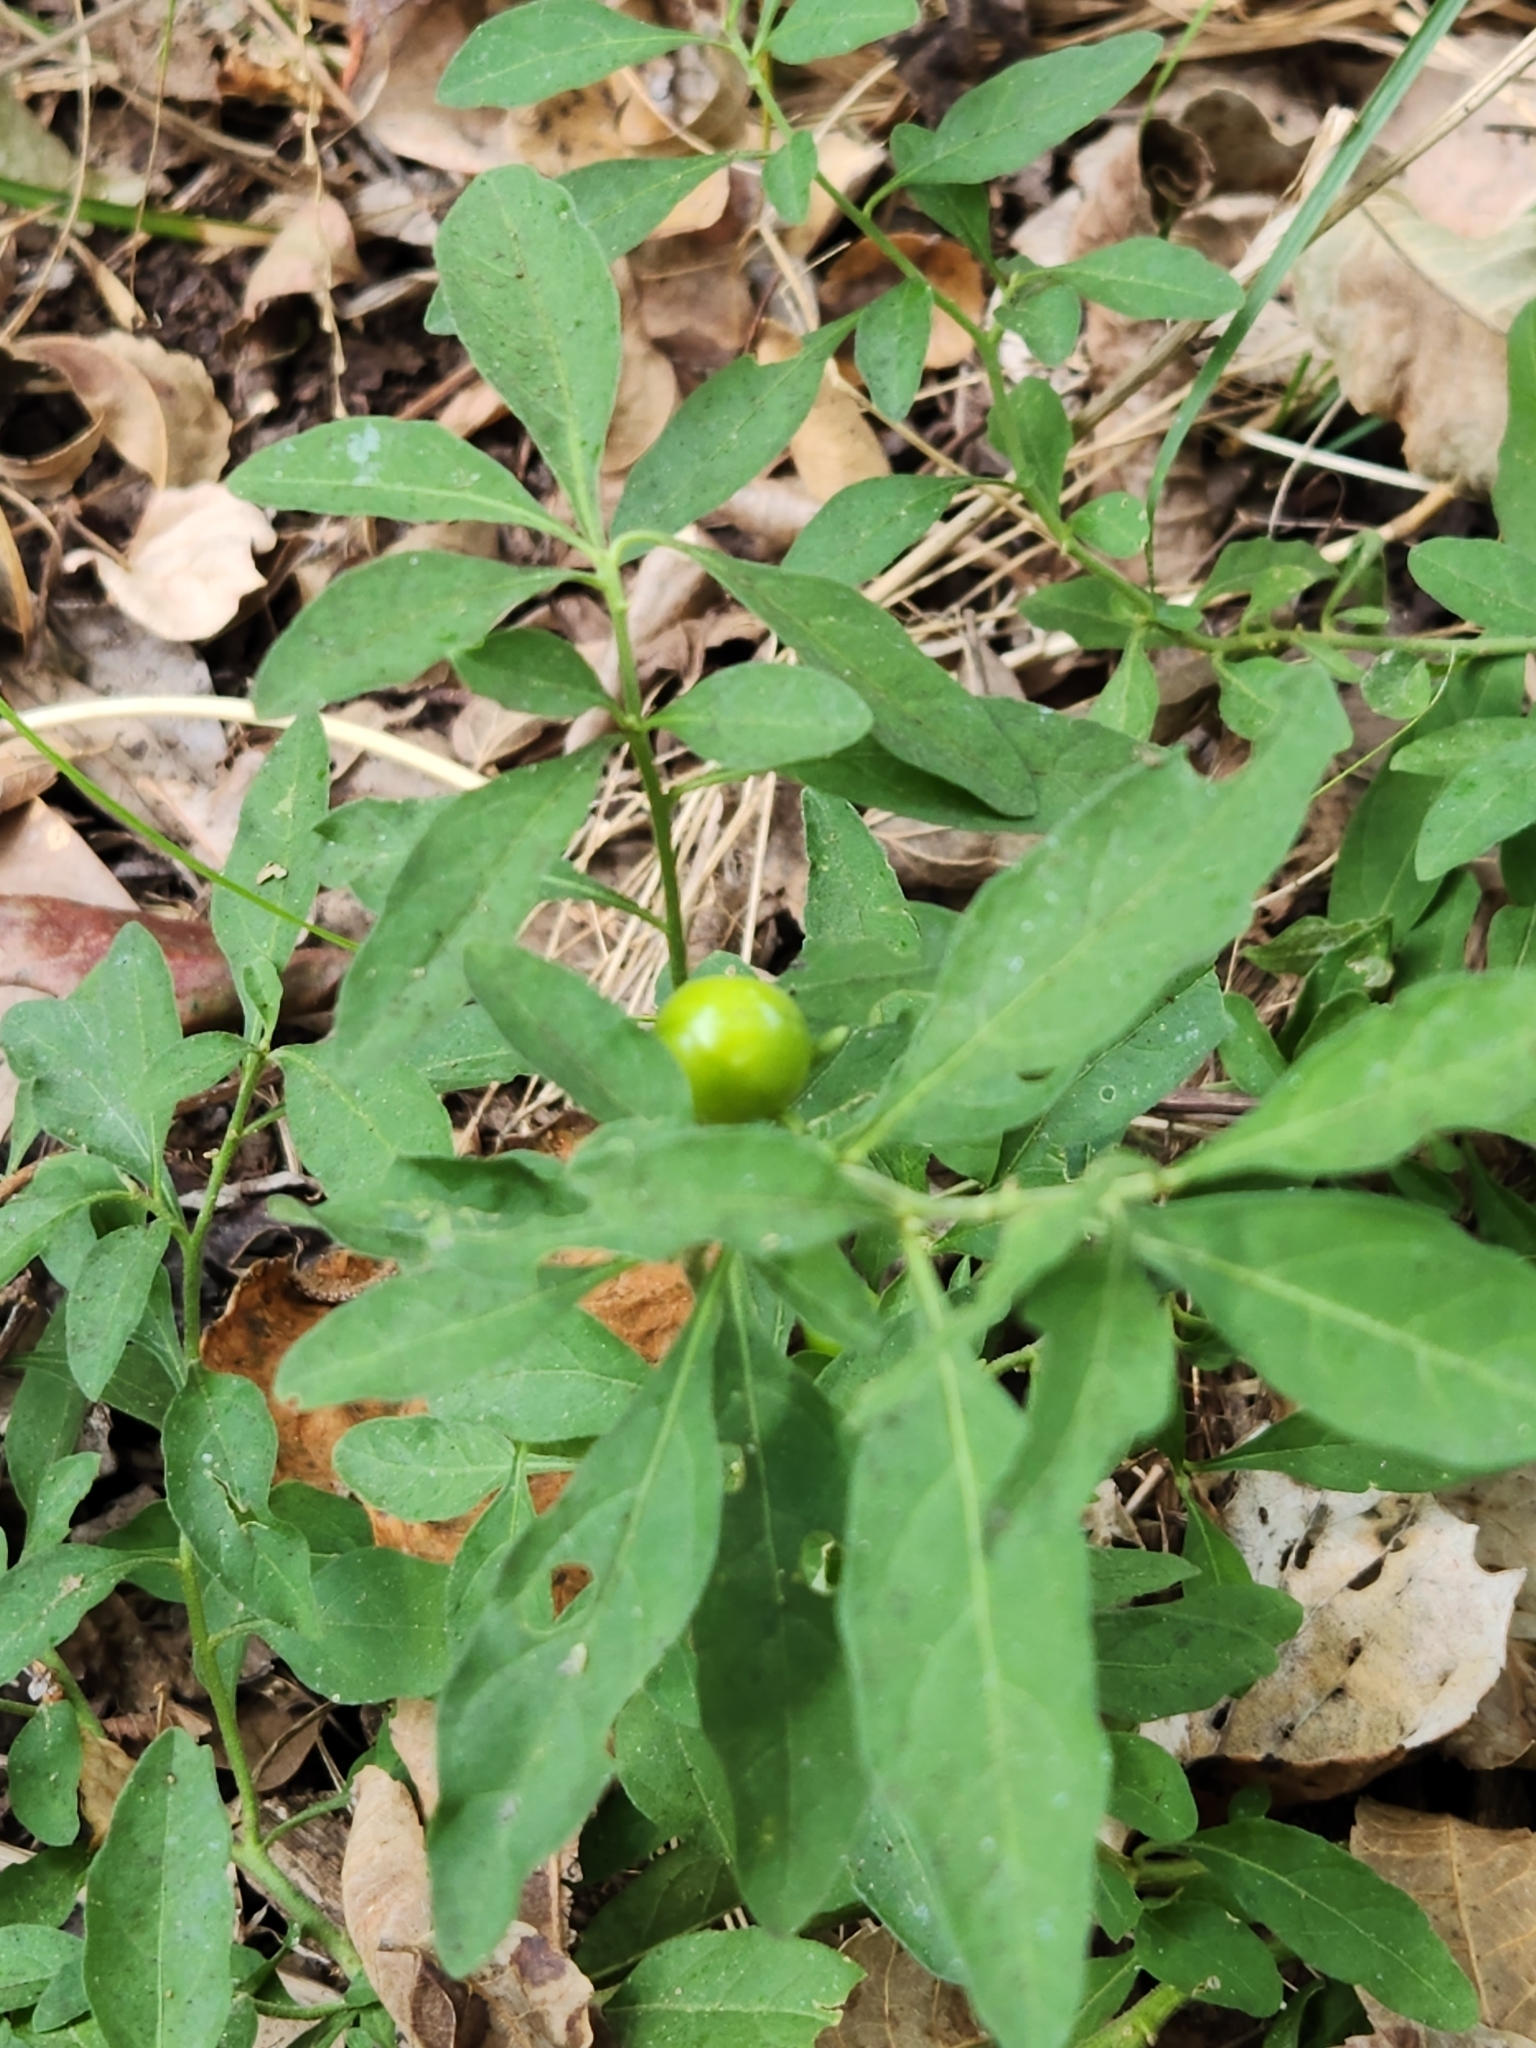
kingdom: Plantae
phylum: Tracheophyta
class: Magnoliopsida
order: Solanales
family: Solanaceae
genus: Solanum
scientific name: Solanum pseudocapsicum
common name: Jerusalem cherry
